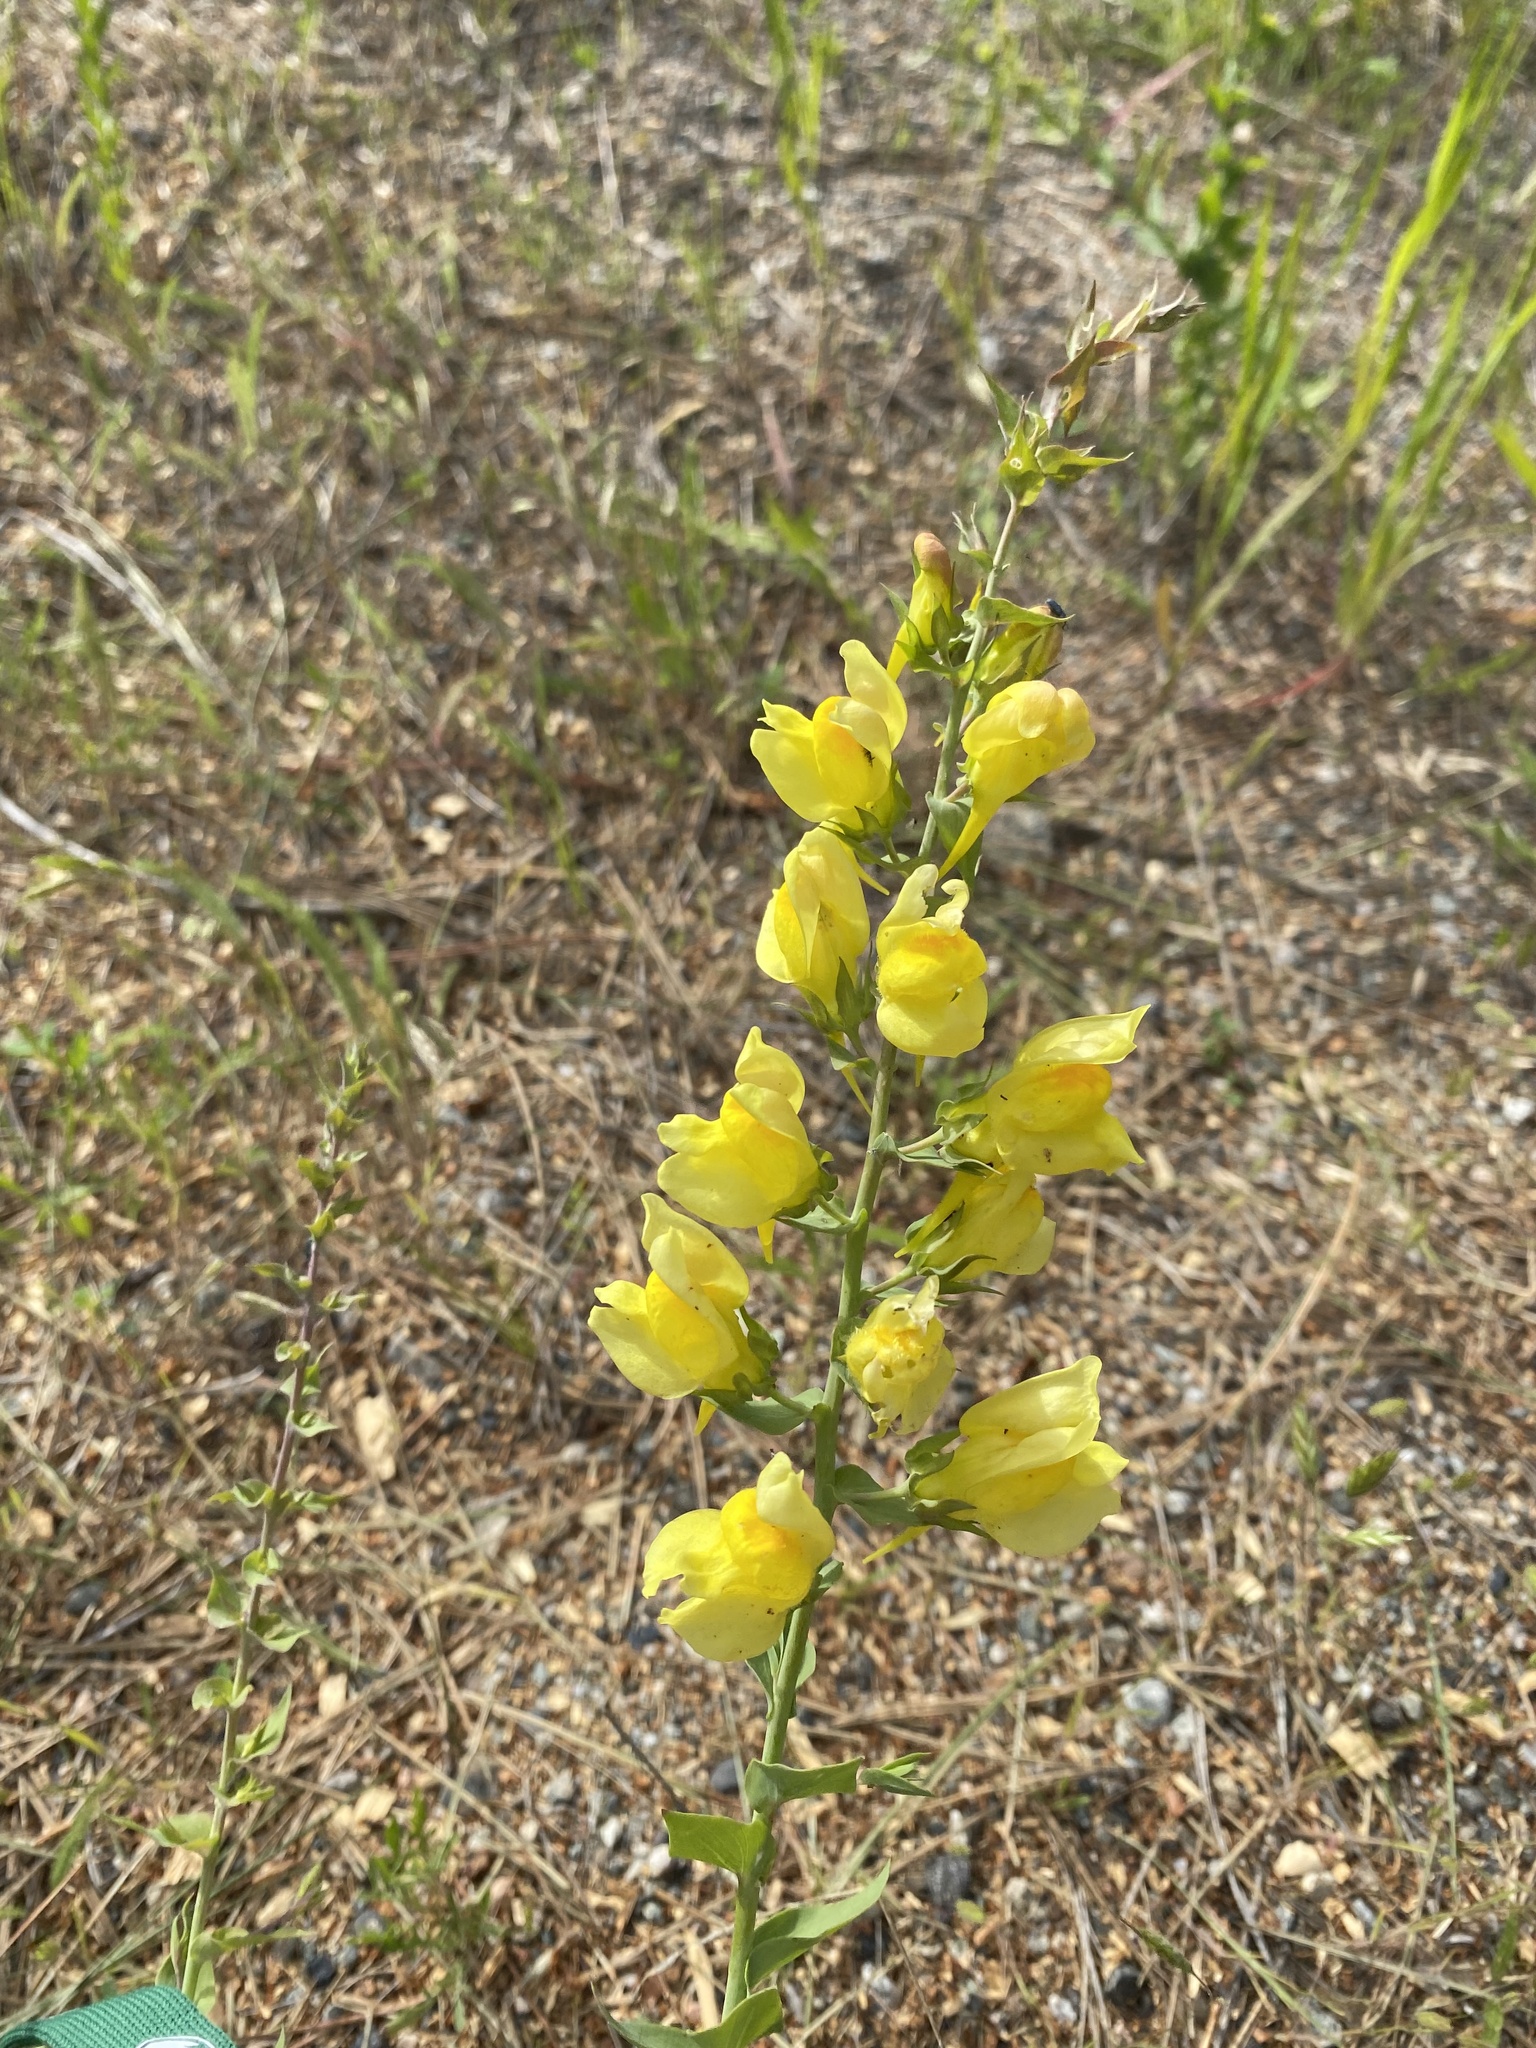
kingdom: Plantae
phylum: Tracheophyta
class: Magnoliopsida
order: Lamiales
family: Plantaginaceae
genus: Linaria
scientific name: Linaria dalmatica
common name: Dalmatian toadflax
